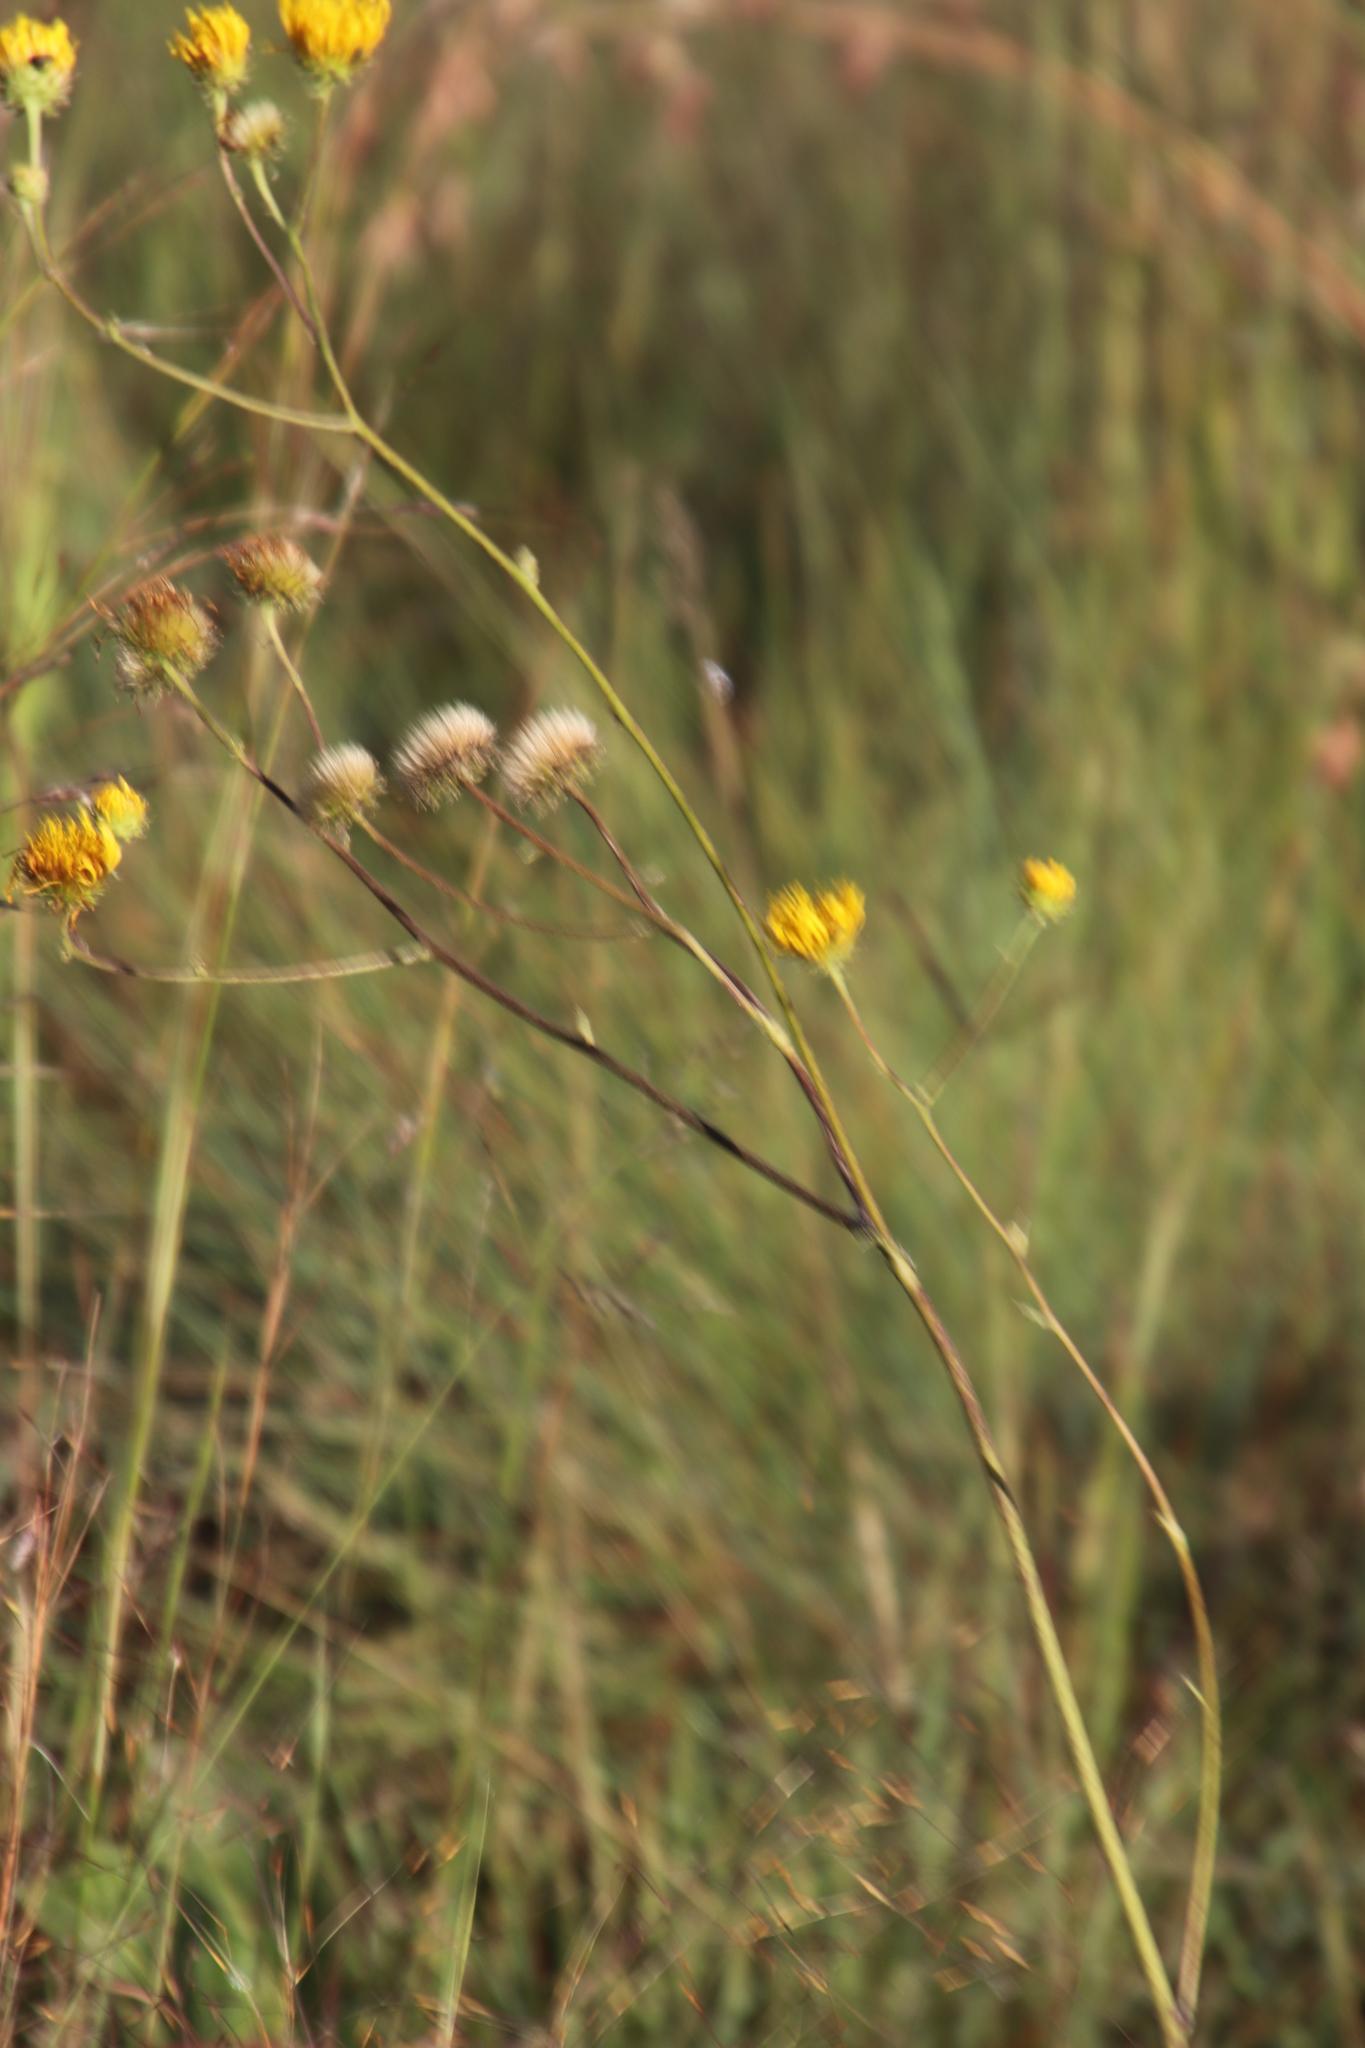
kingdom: Plantae
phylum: Tracheophyta
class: Magnoliopsida
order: Asterales
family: Asteraceae
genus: Berkheya
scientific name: Berkheya setifera
